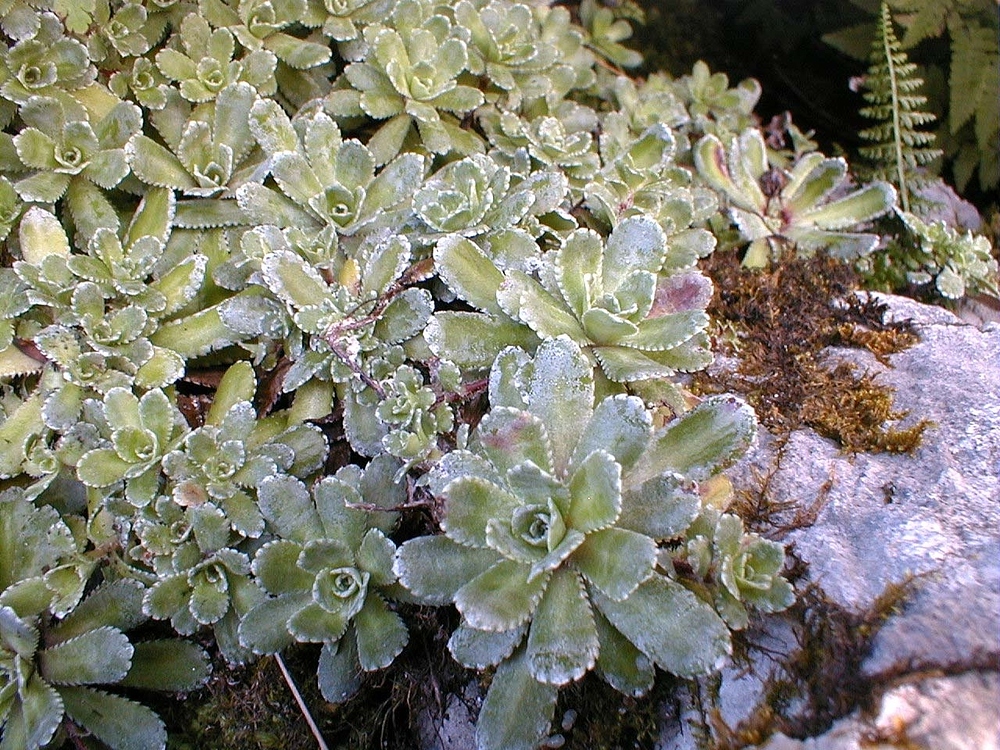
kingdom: Plantae
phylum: Tracheophyta
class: Magnoliopsida
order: Saxifragales
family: Saxifragaceae
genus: Saxifraga
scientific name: Saxifraga paniculata
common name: Livelong saxifrage
